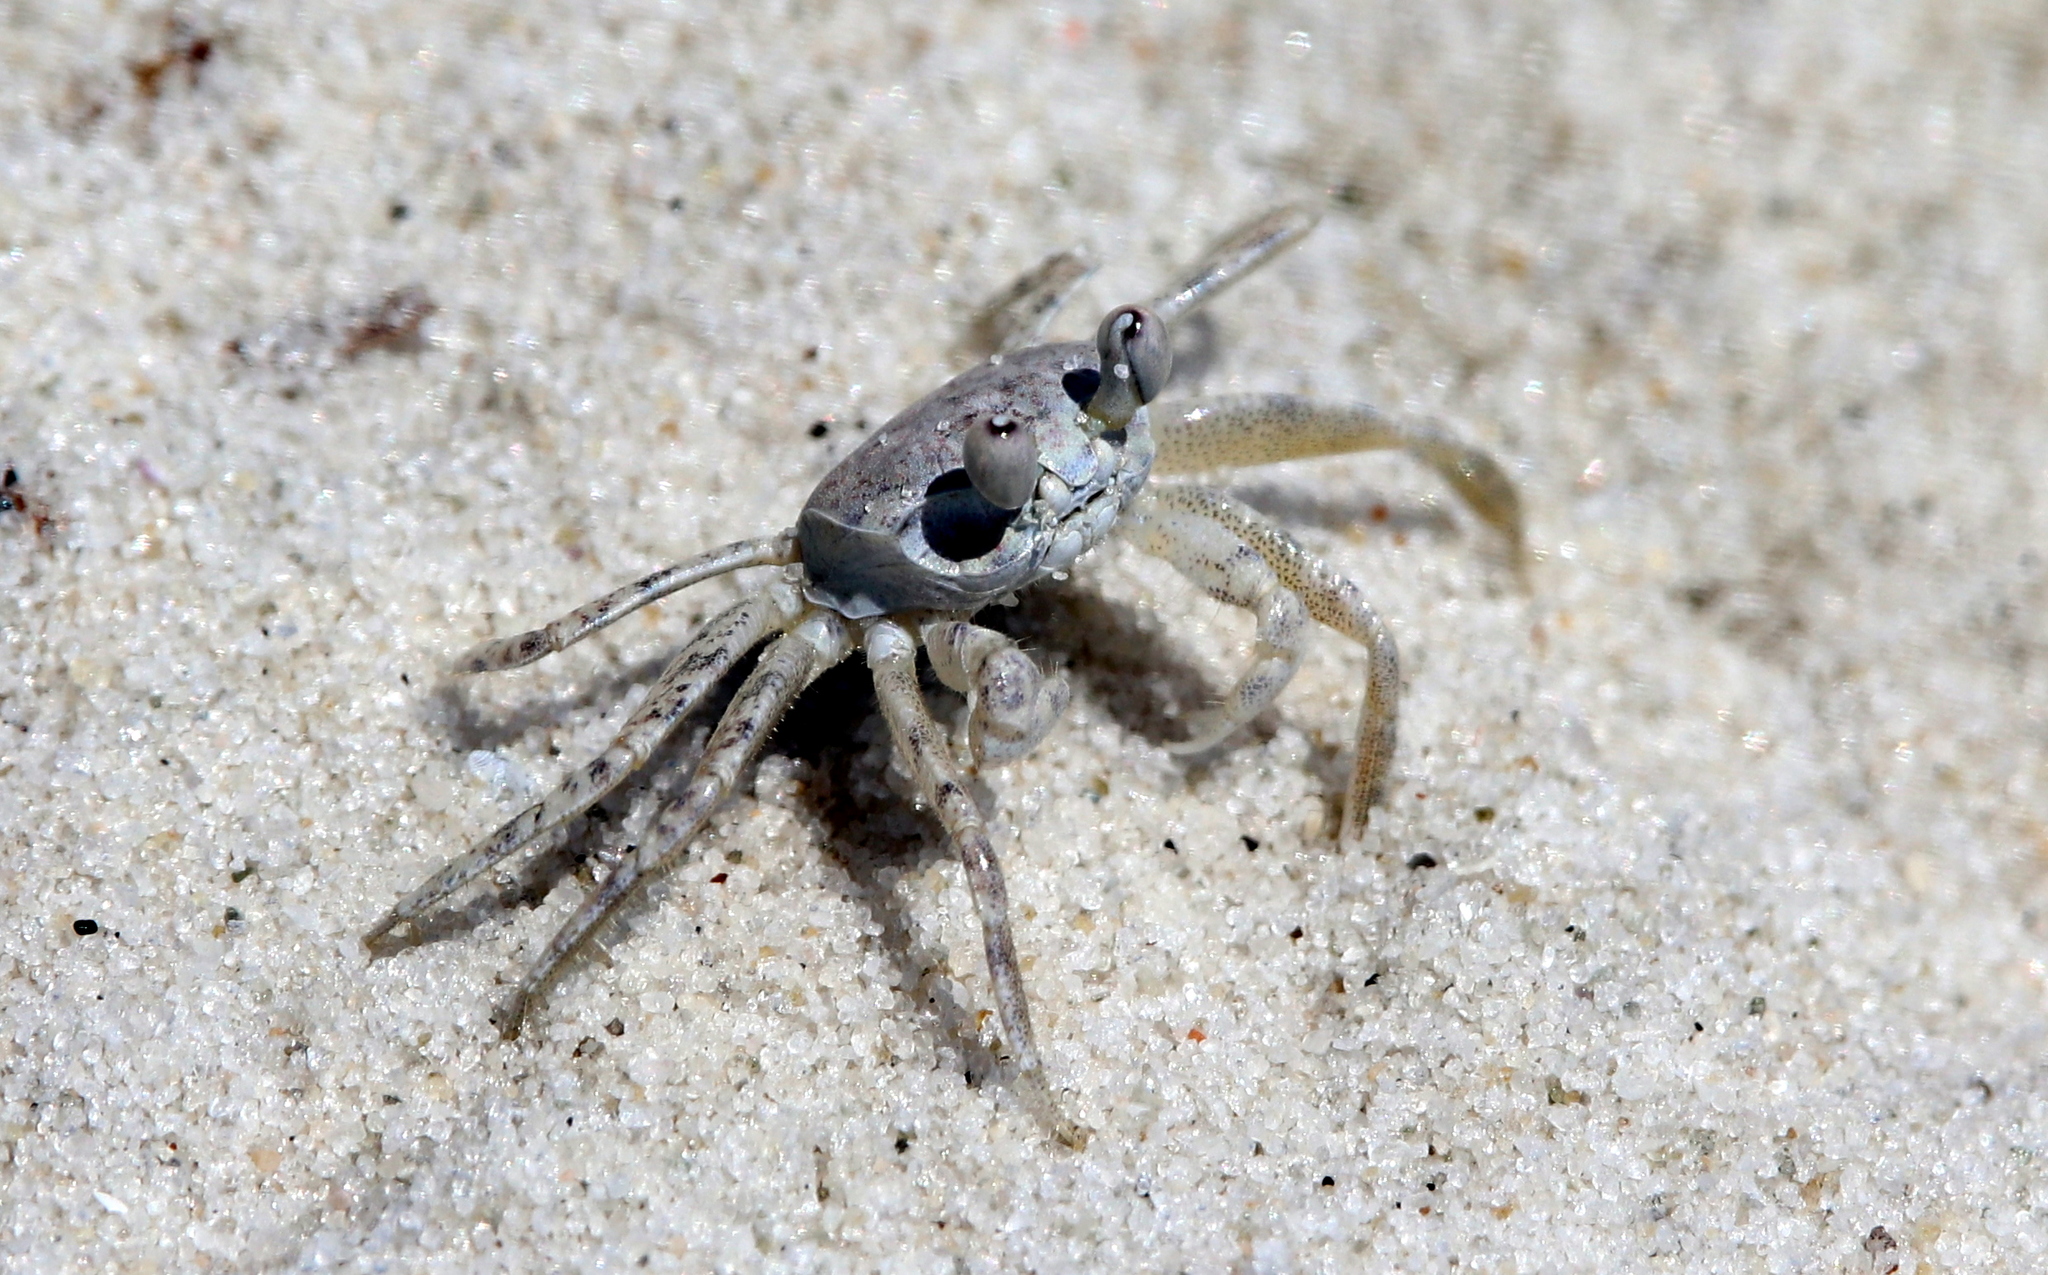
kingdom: Animalia
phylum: Arthropoda
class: Malacostraca
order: Decapoda
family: Ocypodidae
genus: Ocypode
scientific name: Ocypode quadrata
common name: Ghost crab
